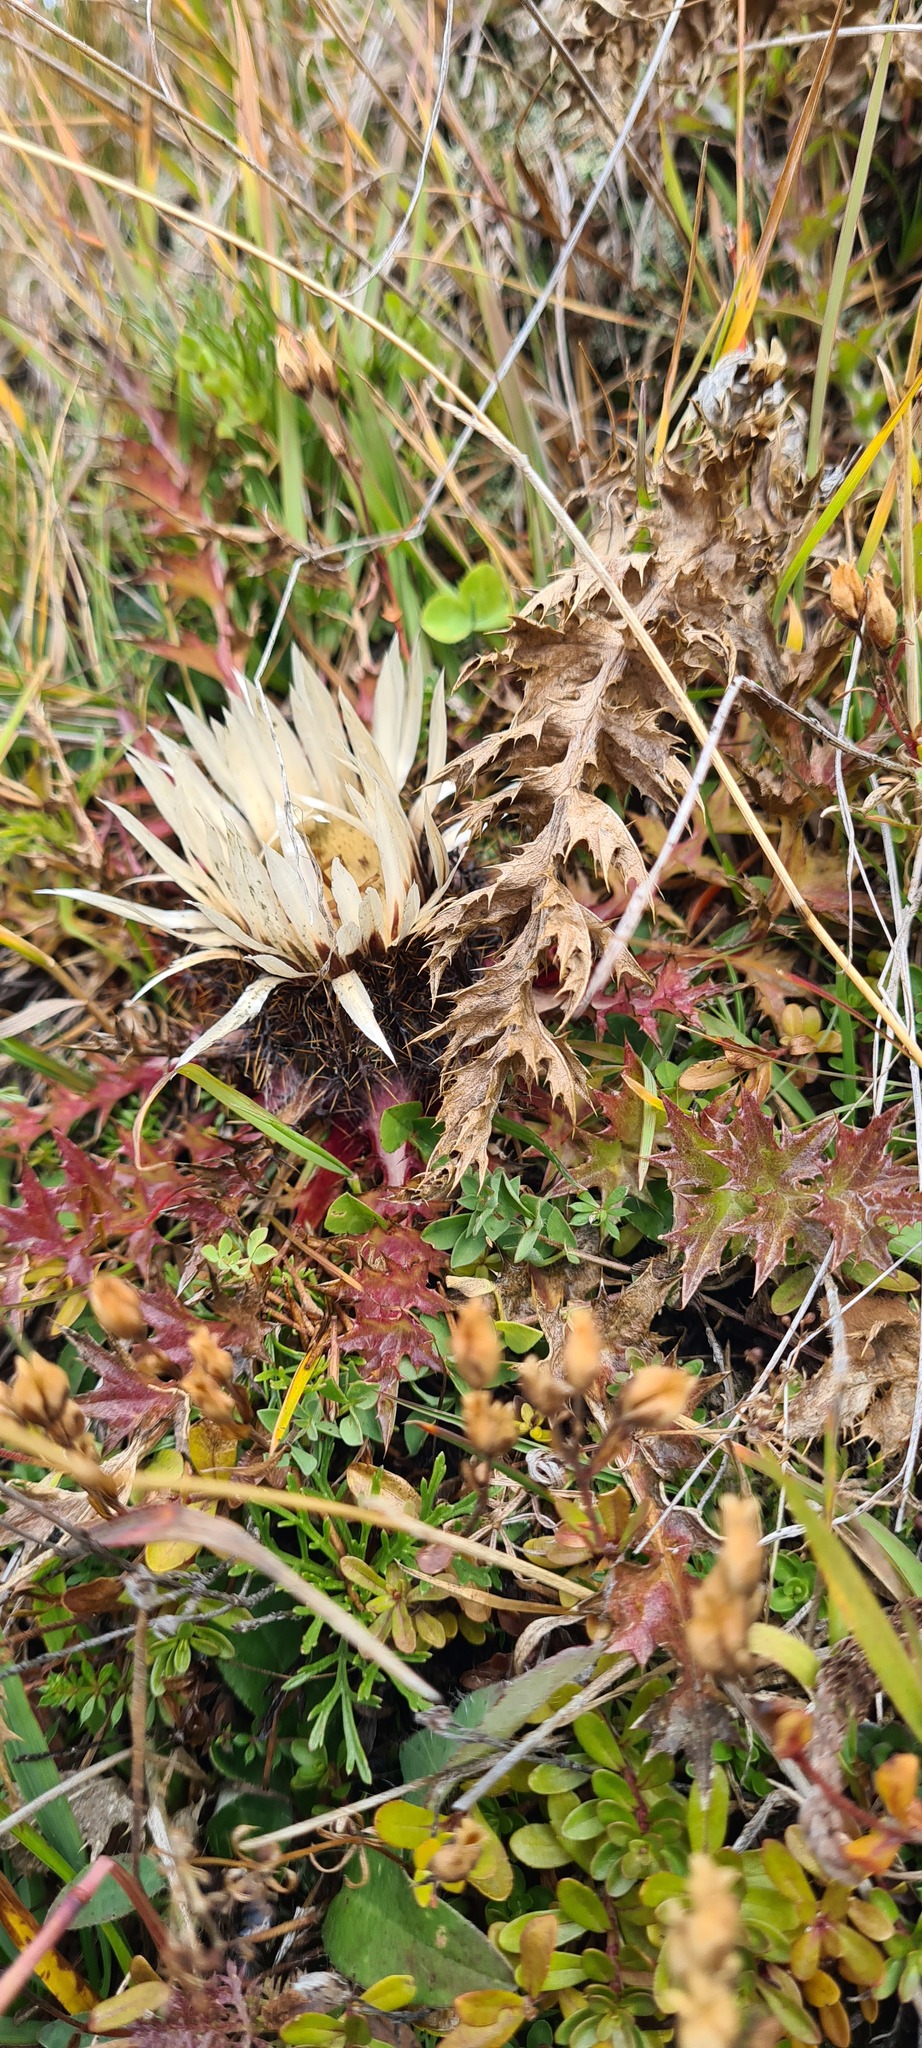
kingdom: Plantae
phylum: Tracheophyta
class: Magnoliopsida
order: Asterales
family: Asteraceae
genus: Carlina
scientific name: Carlina vulgaris
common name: Carline thistle
